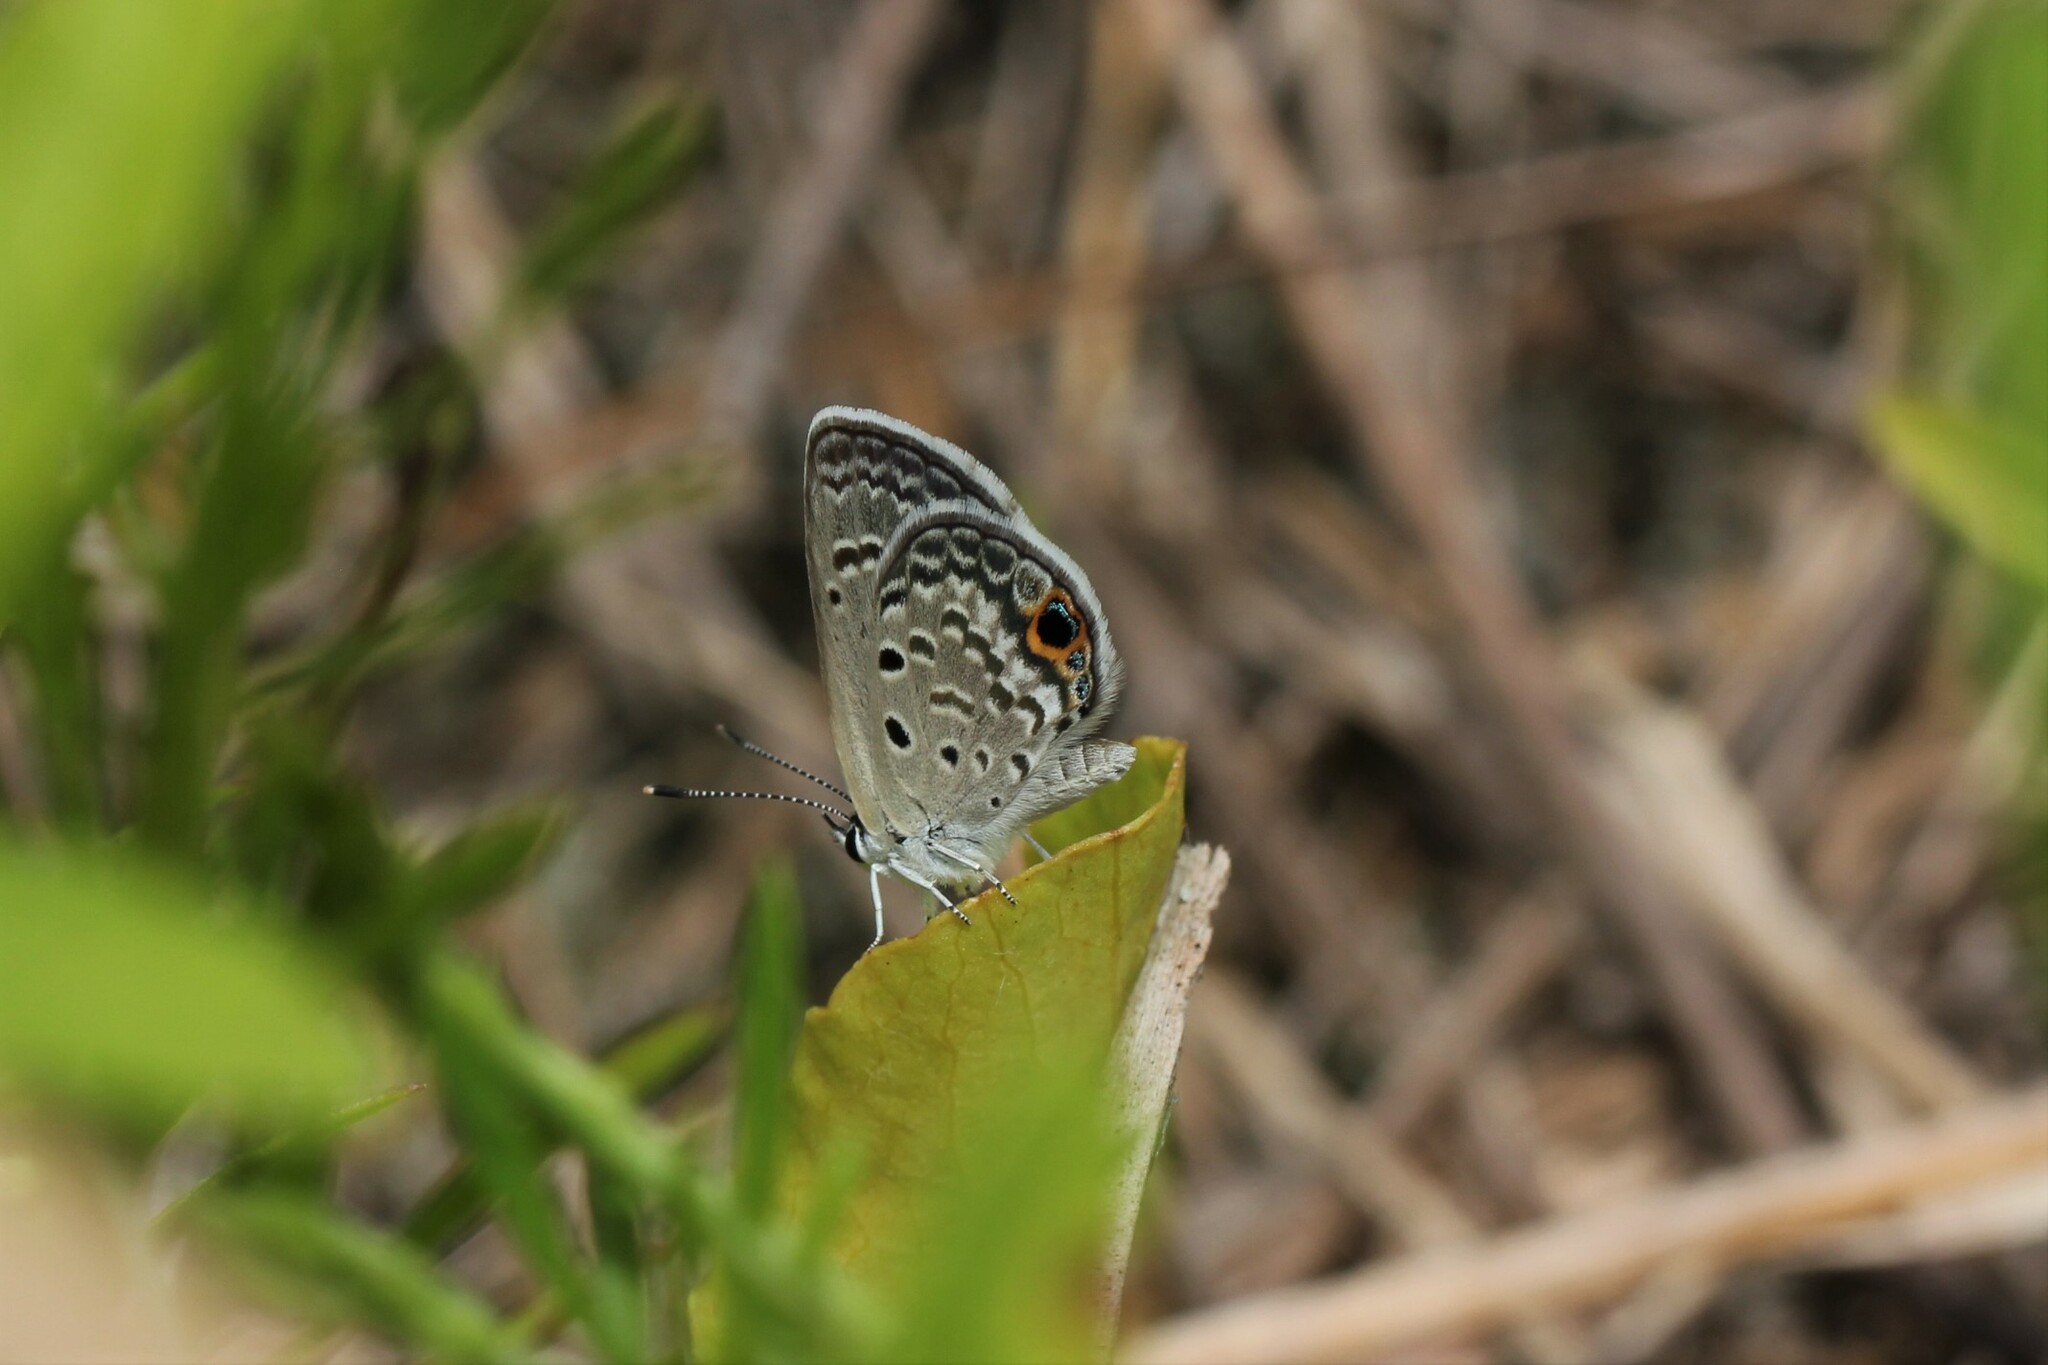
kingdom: Animalia
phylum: Arthropoda
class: Insecta
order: Lepidoptera
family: Lycaenidae
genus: Hemiargus
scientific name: Hemiargus ceraunus
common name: Ceraunus blue
